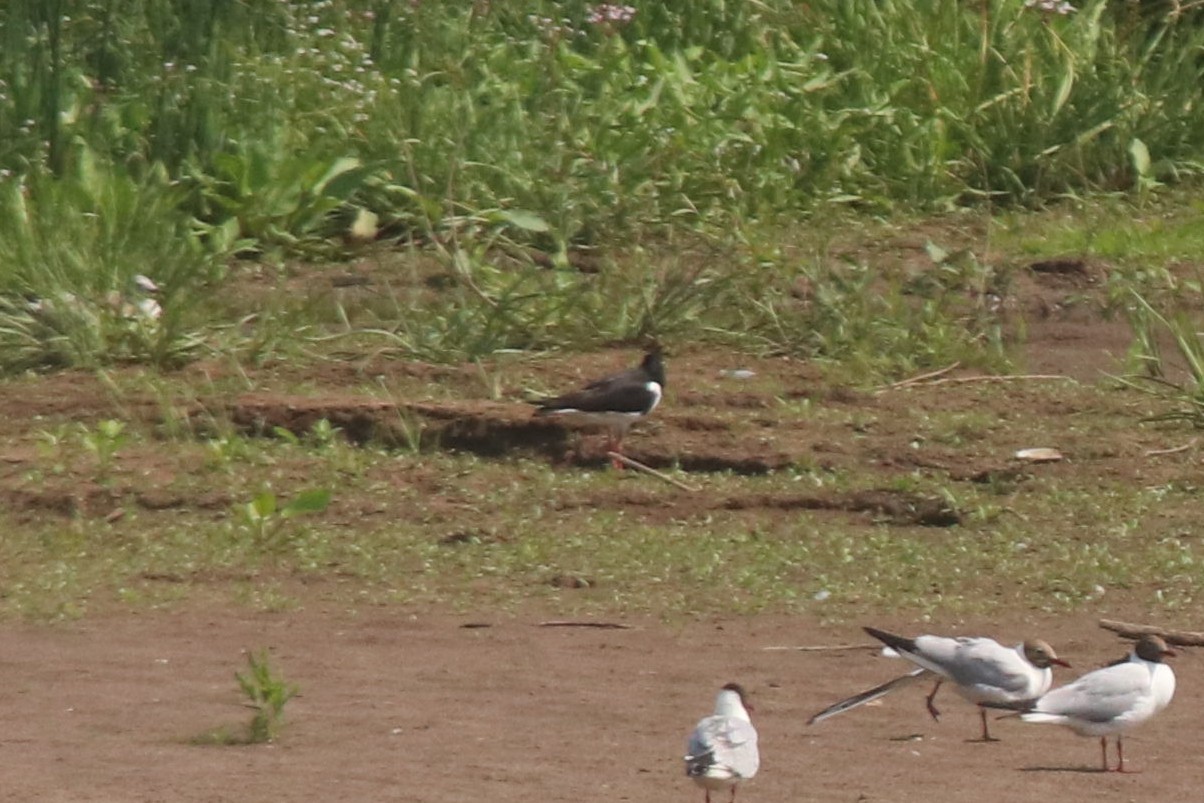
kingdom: Animalia
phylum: Chordata
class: Aves
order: Charadriiformes
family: Haematopodidae
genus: Haematopus
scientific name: Haematopus ostralegus
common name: Eurasian oystercatcher
